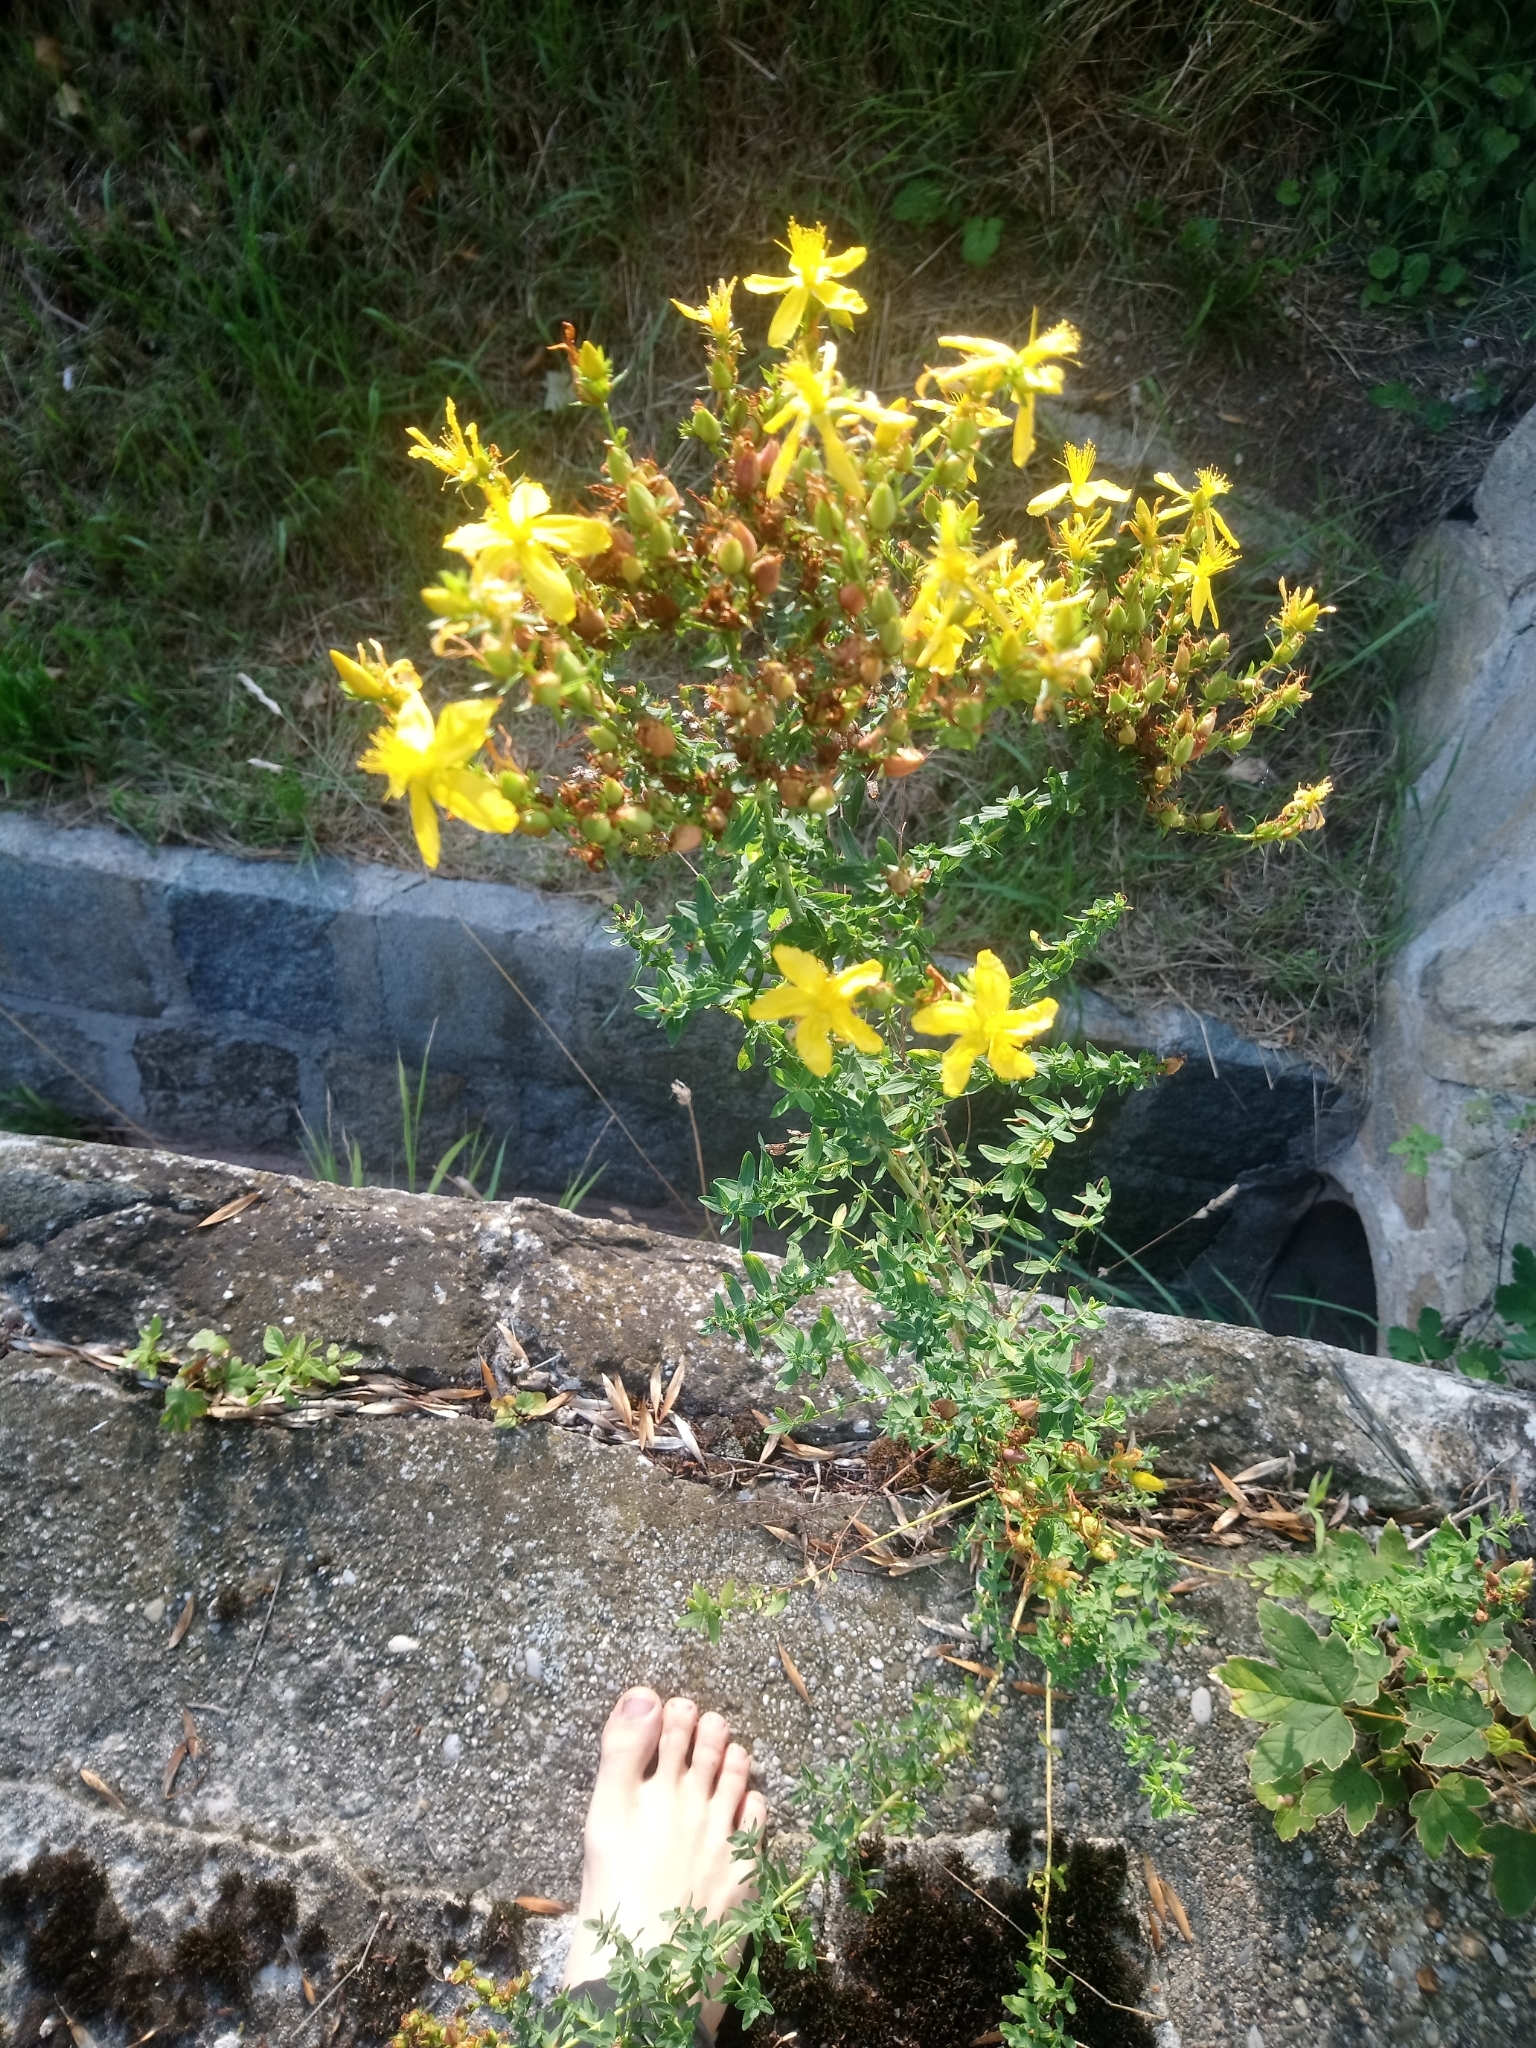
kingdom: Plantae
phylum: Tracheophyta
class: Magnoliopsida
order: Malpighiales
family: Hypericaceae
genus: Hypericum
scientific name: Hypericum perforatum
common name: Common st. johnswort
